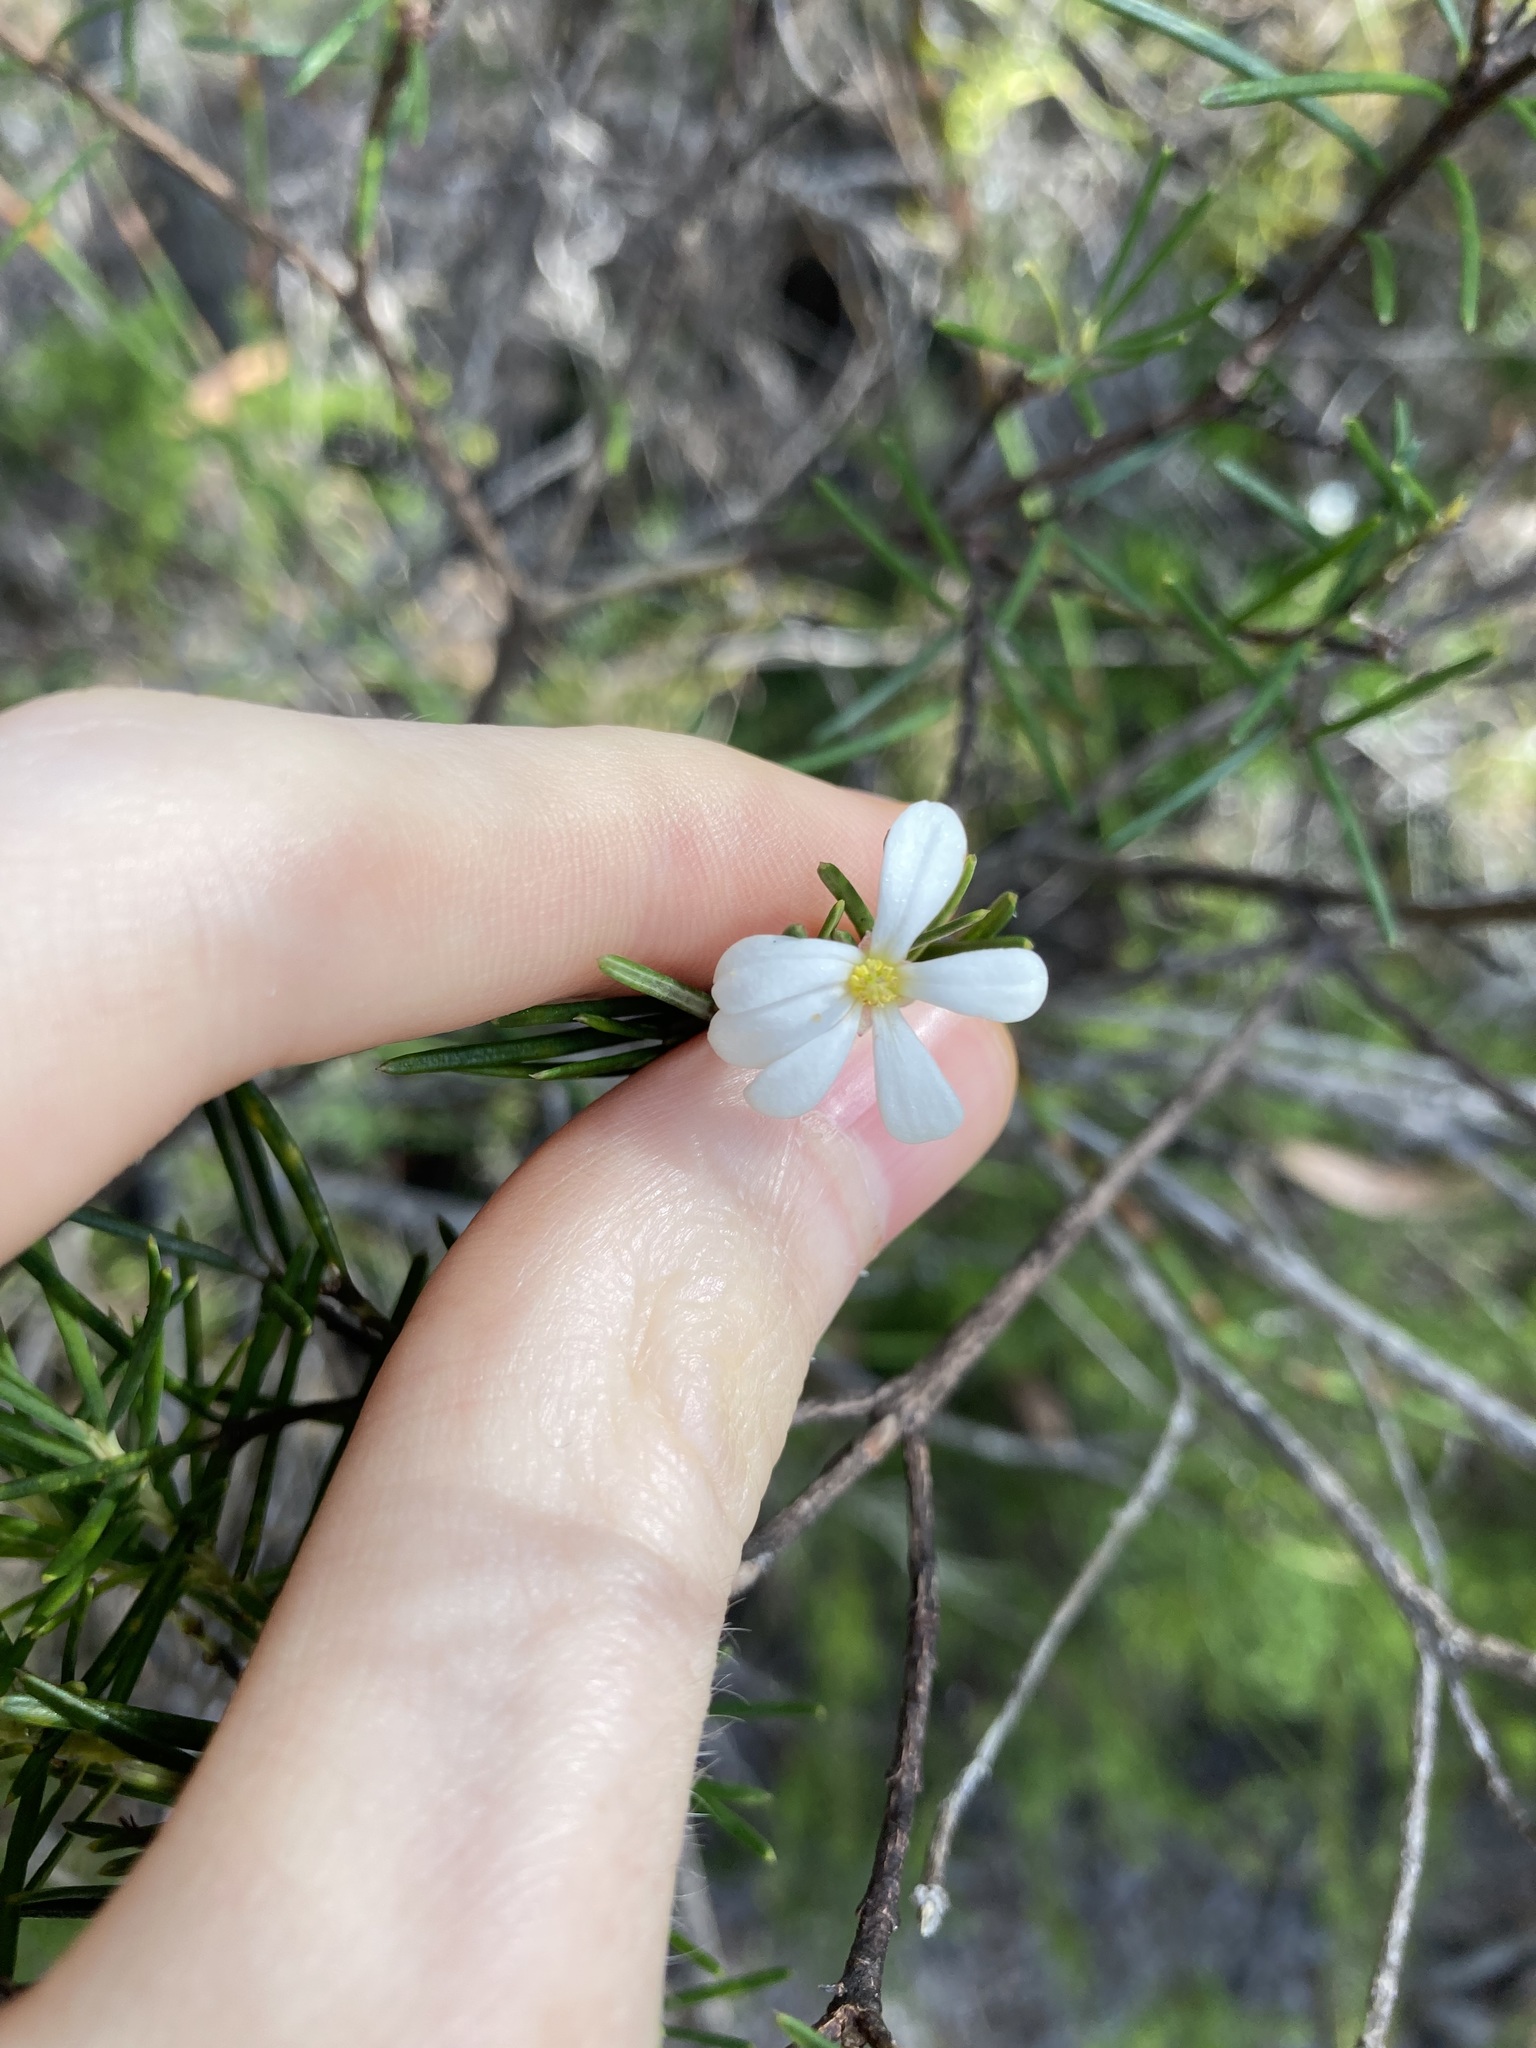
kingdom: Plantae
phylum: Tracheophyta
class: Magnoliopsida
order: Malpighiales
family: Euphorbiaceae
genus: Ricinocarpos
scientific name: Ricinocarpos pinifolius
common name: Weddingbush
